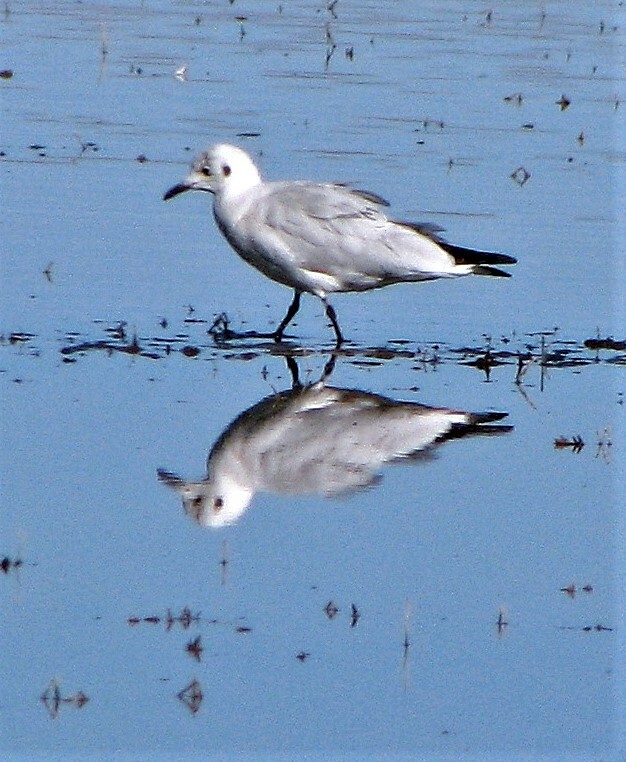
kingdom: Animalia
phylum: Chordata
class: Aves
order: Charadriiformes
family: Laridae
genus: Chroicocephalus
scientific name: Chroicocephalus serranus
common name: Andean gull
